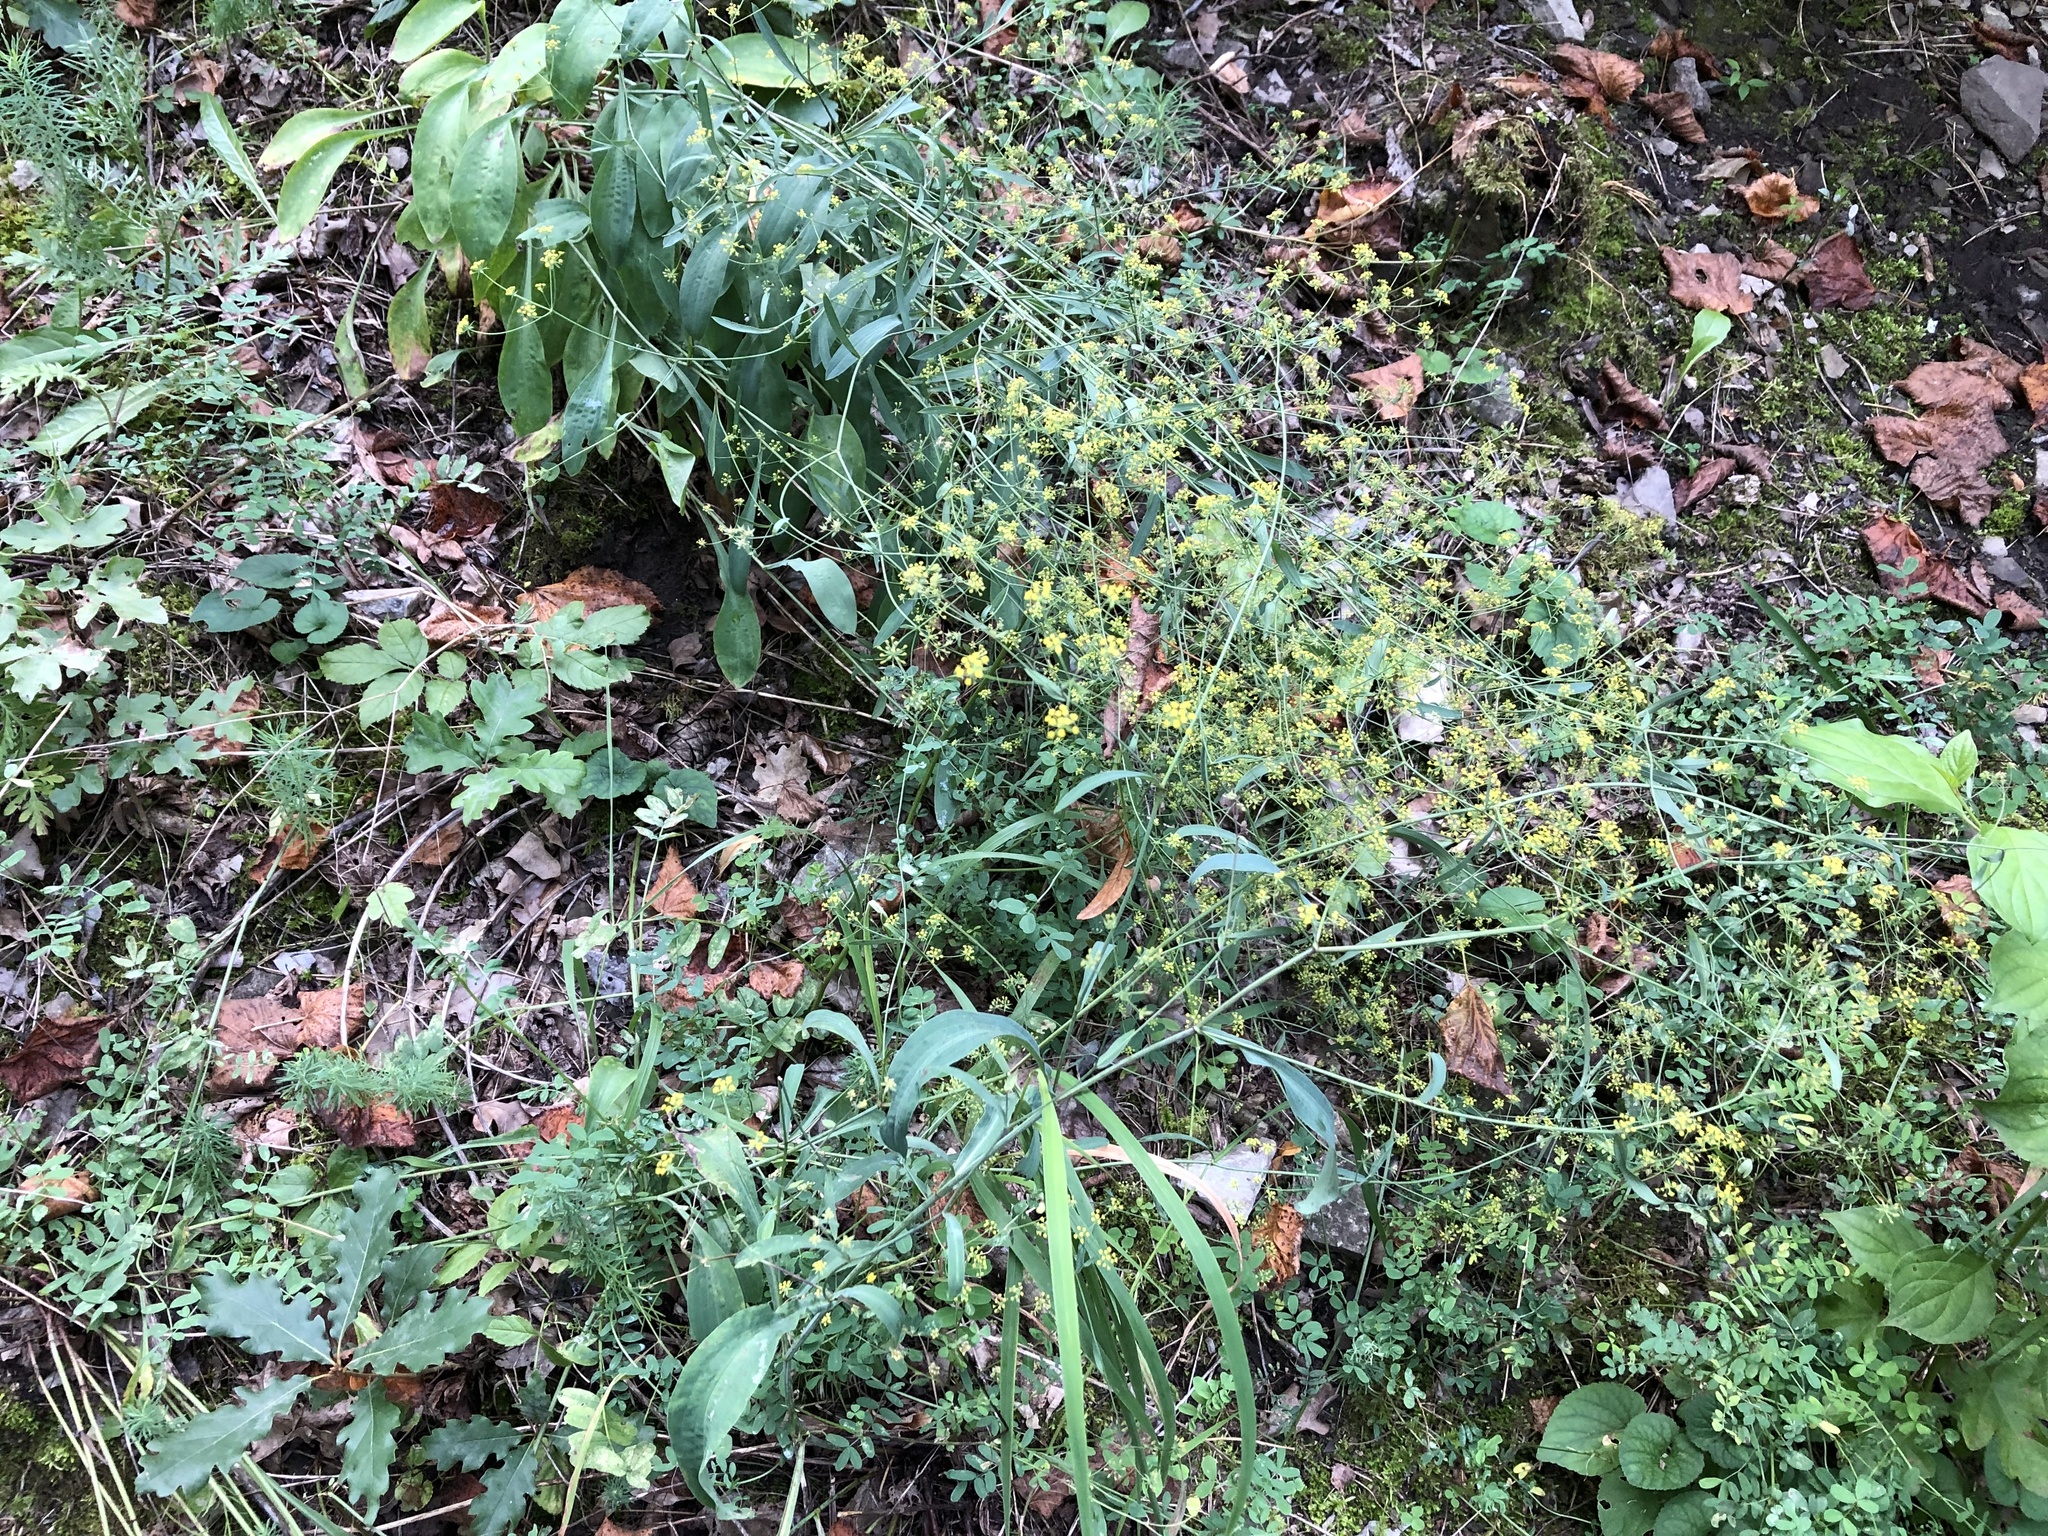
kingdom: Plantae
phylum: Tracheophyta
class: Magnoliopsida
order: Apiales
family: Apiaceae
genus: Bupleurum
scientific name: Bupleurum falcatum
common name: Sickle-leaved hare's-ear
